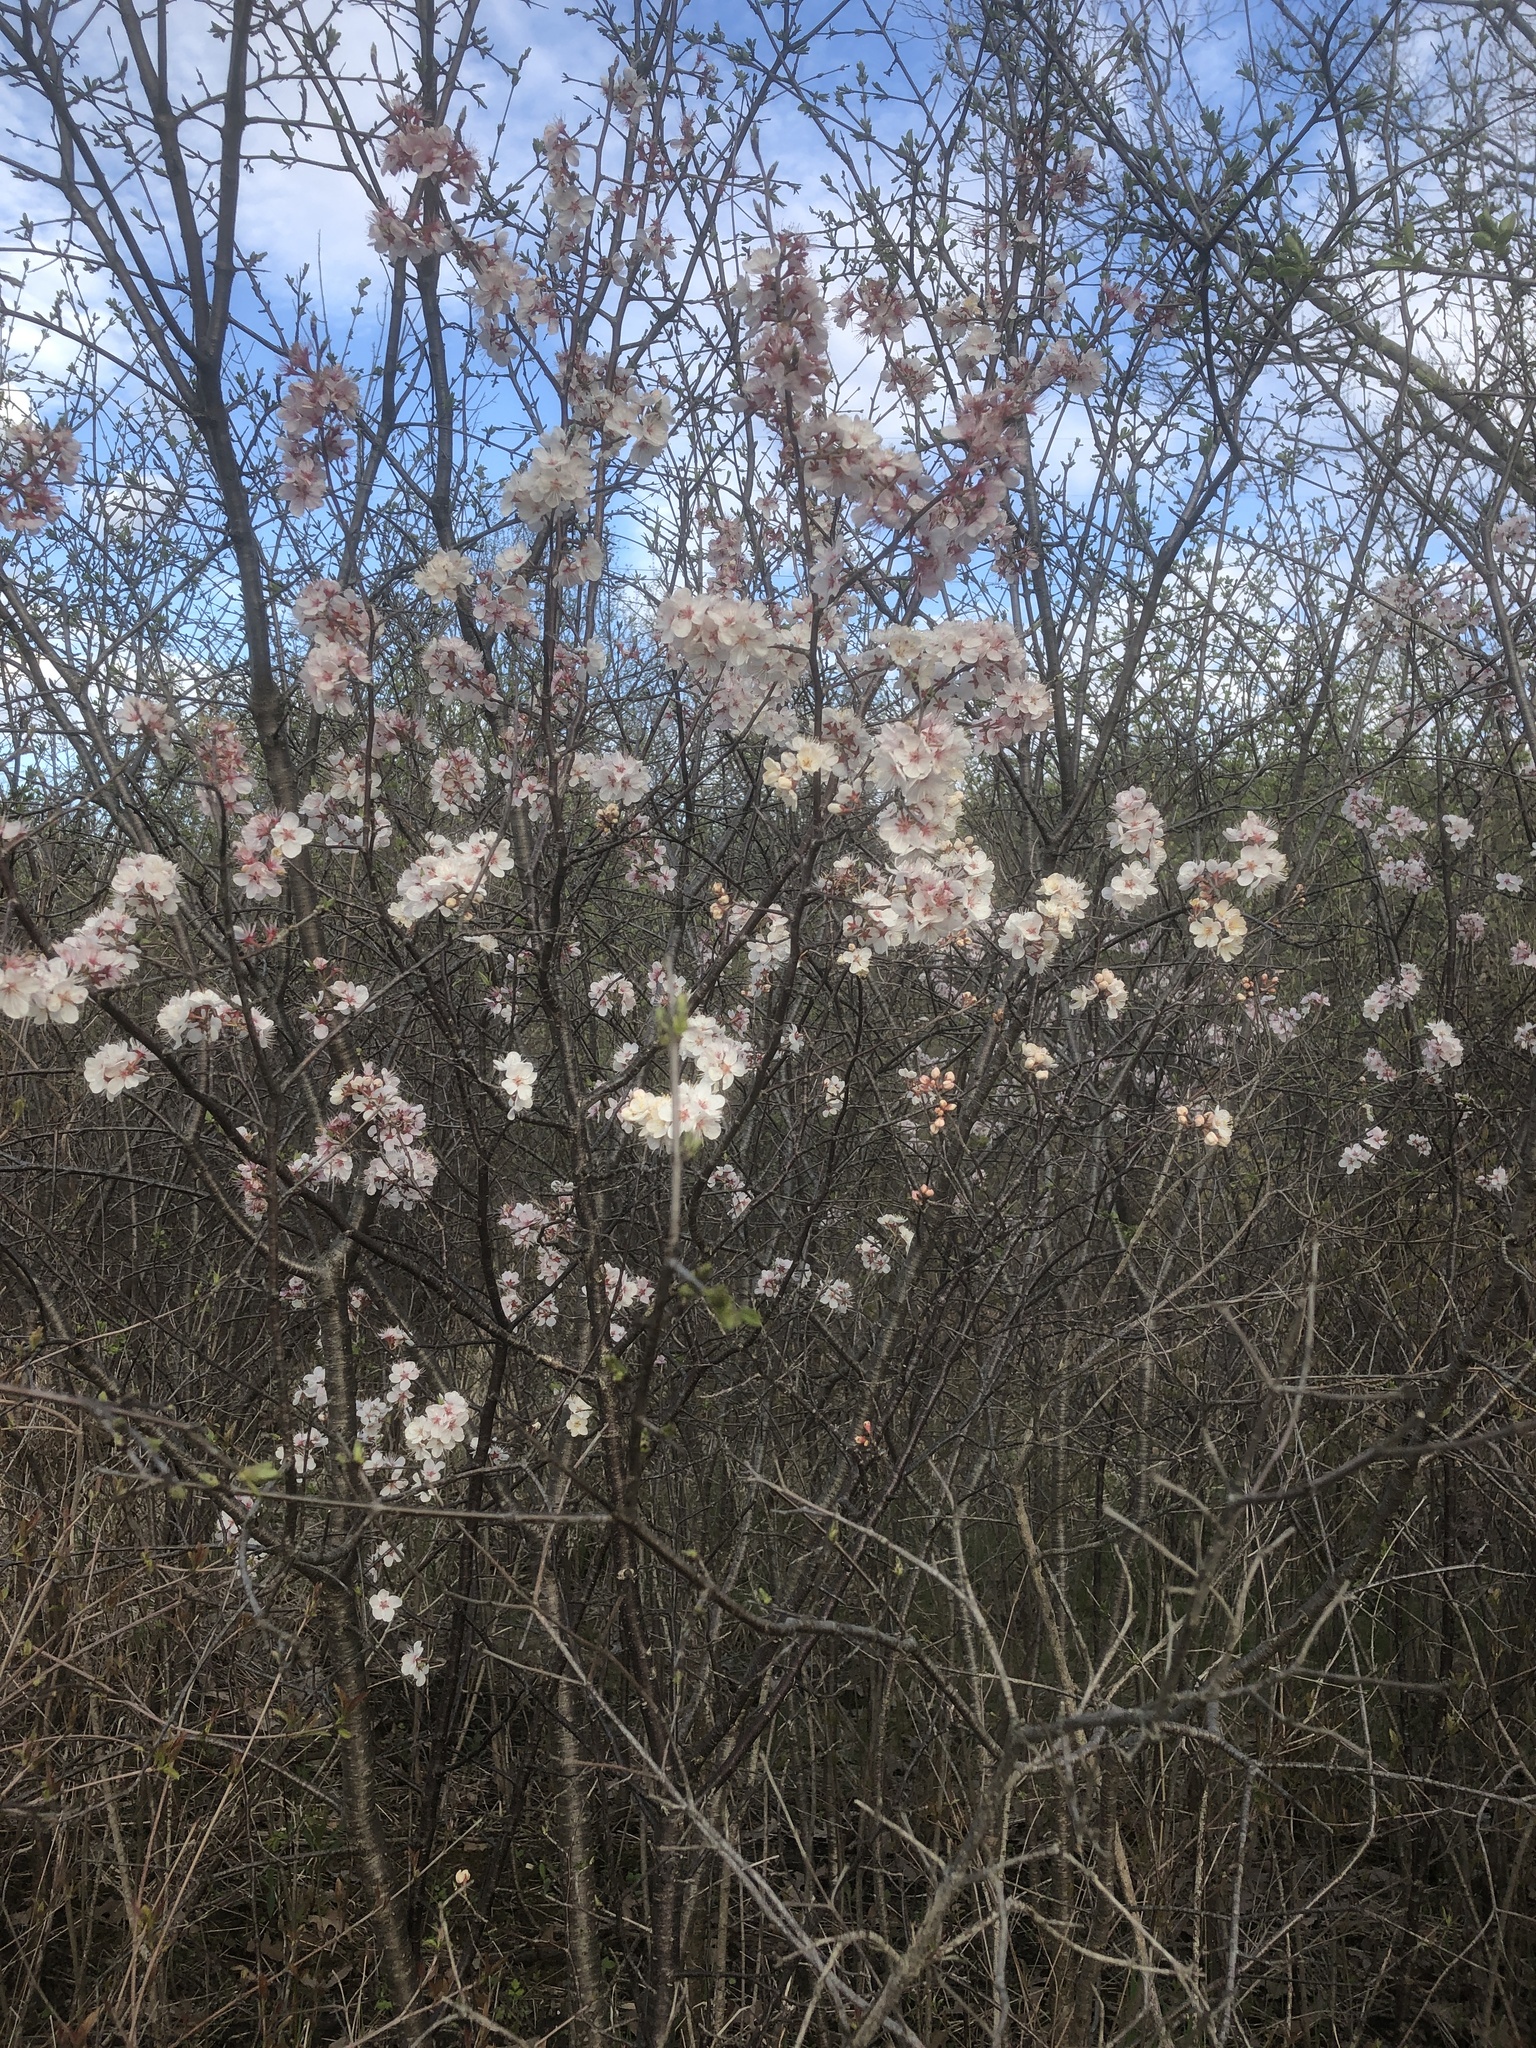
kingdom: Plantae
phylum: Tracheophyta
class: Magnoliopsida
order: Rosales
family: Rosaceae
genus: Prunus
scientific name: Prunus nigra
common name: Black plum
